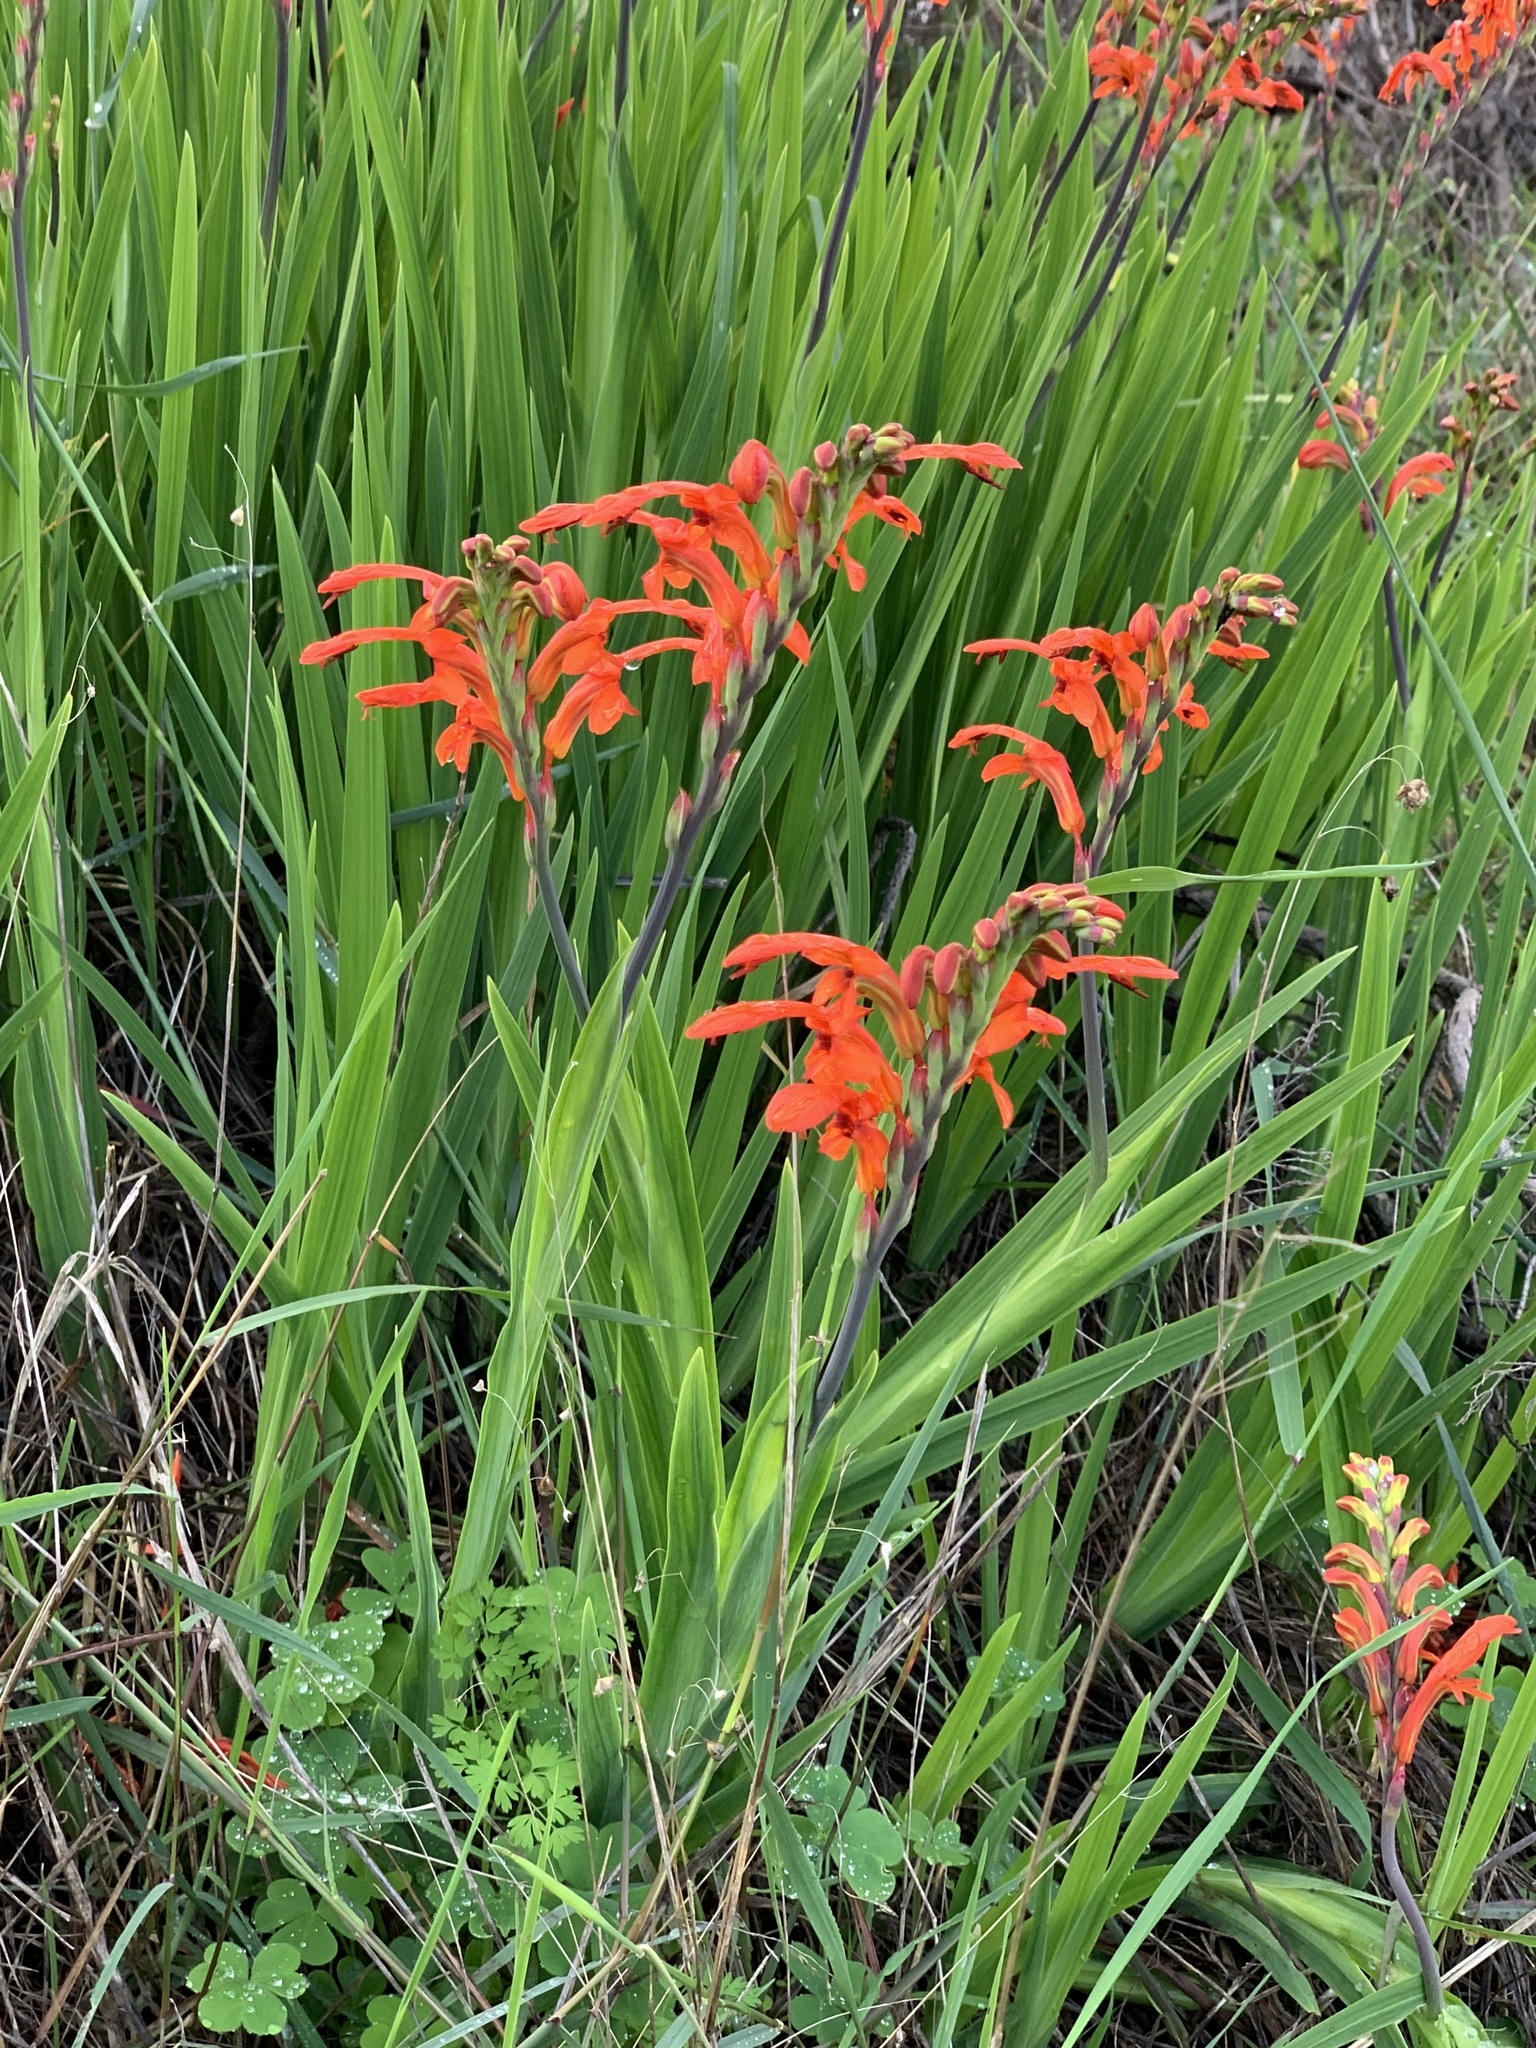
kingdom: Plantae
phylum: Tracheophyta
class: Liliopsida
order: Asparagales
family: Iridaceae
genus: Chasmanthe
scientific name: Chasmanthe aethiopica
